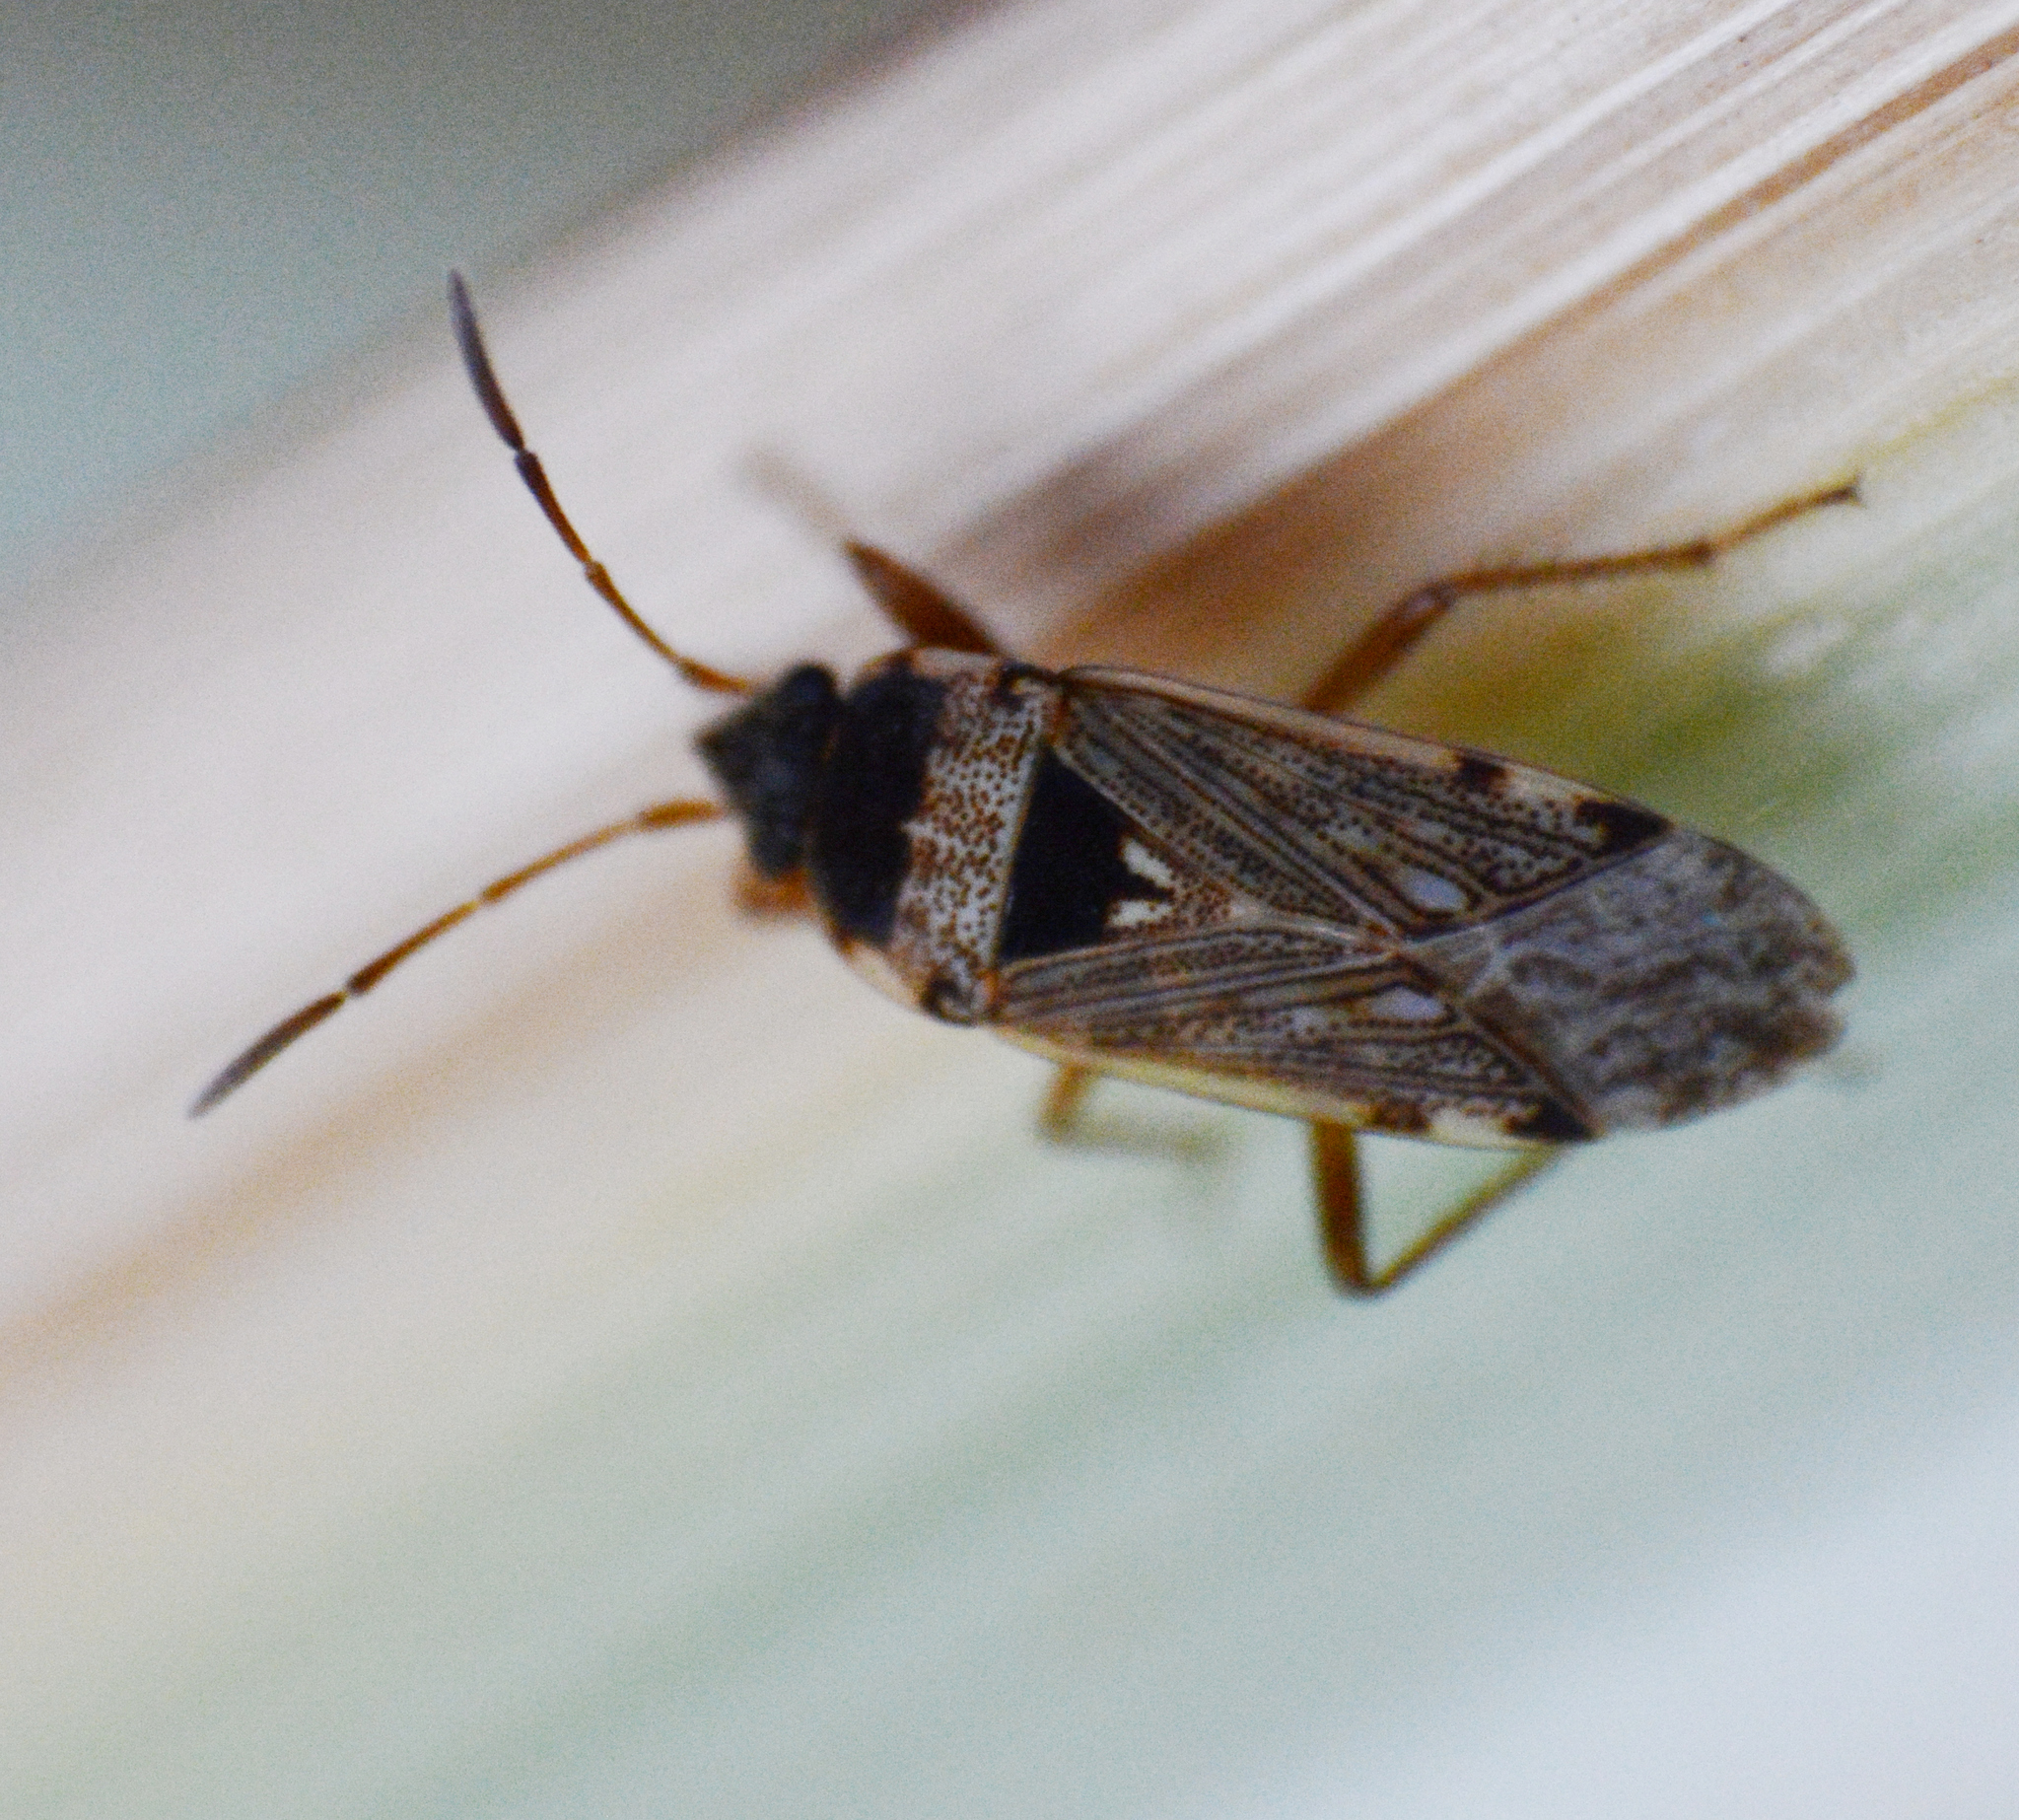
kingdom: Animalia
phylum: Arthropoda
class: Insecta
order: Hemiptera
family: Rhyparochromidae
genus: Elasmolomus
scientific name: Elasmolomus transversus
